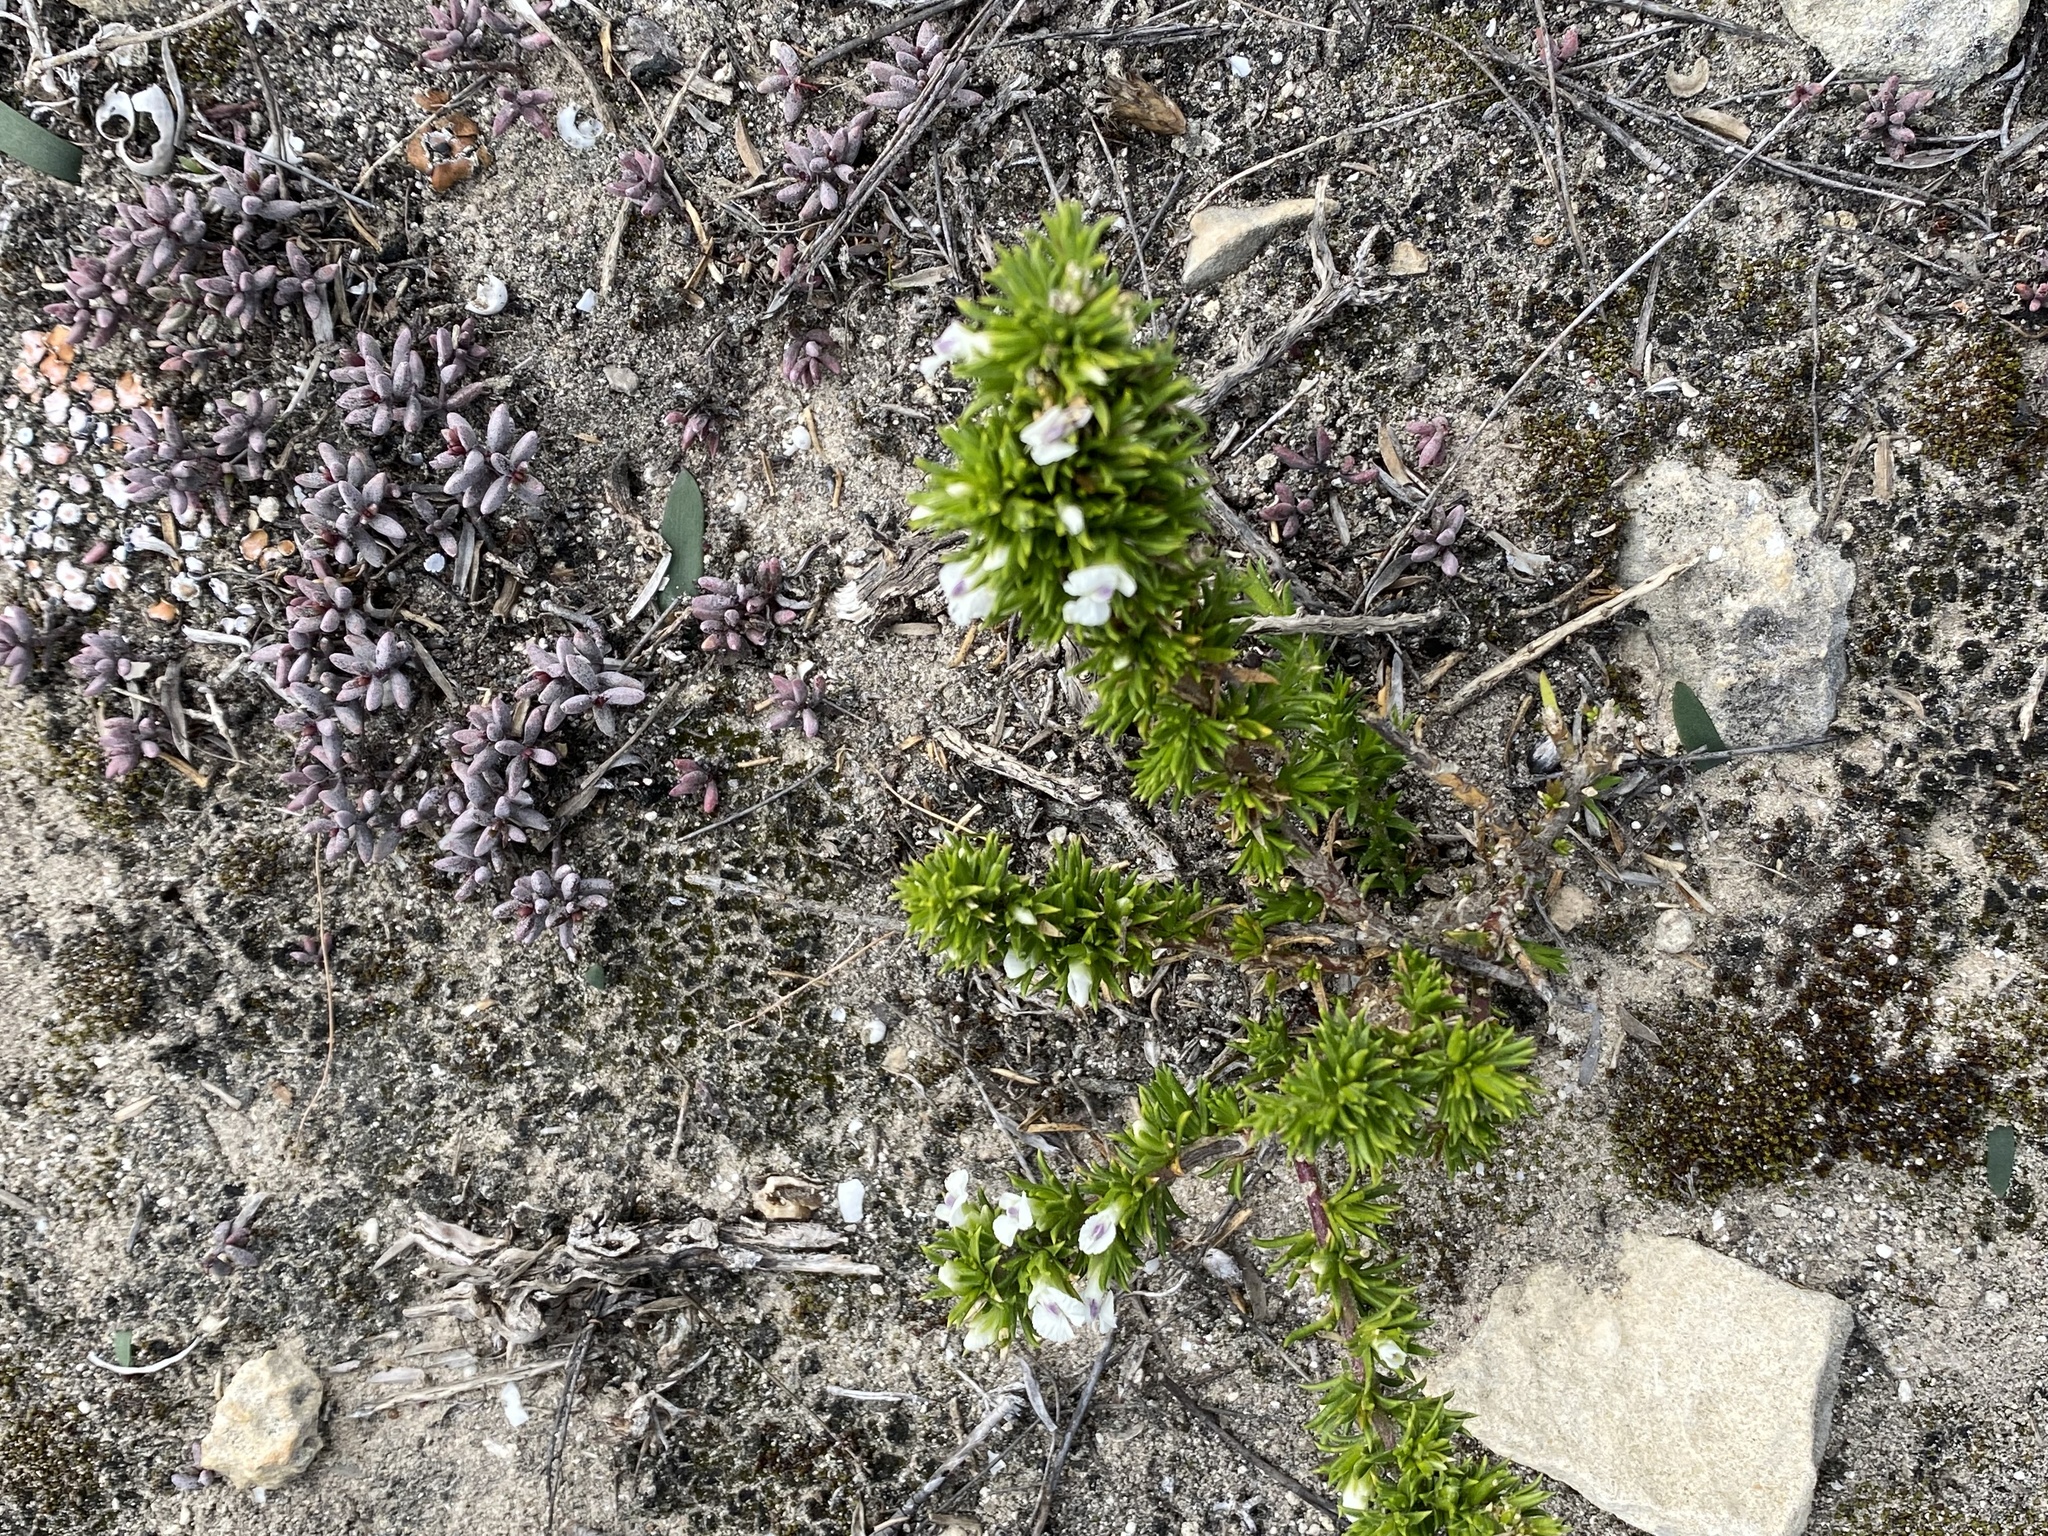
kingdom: Plantae
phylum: Tracheophyta
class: Magnoliopsida
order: Fabales
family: Polygalaceae
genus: Muraltia
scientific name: Muraltia pappeana
